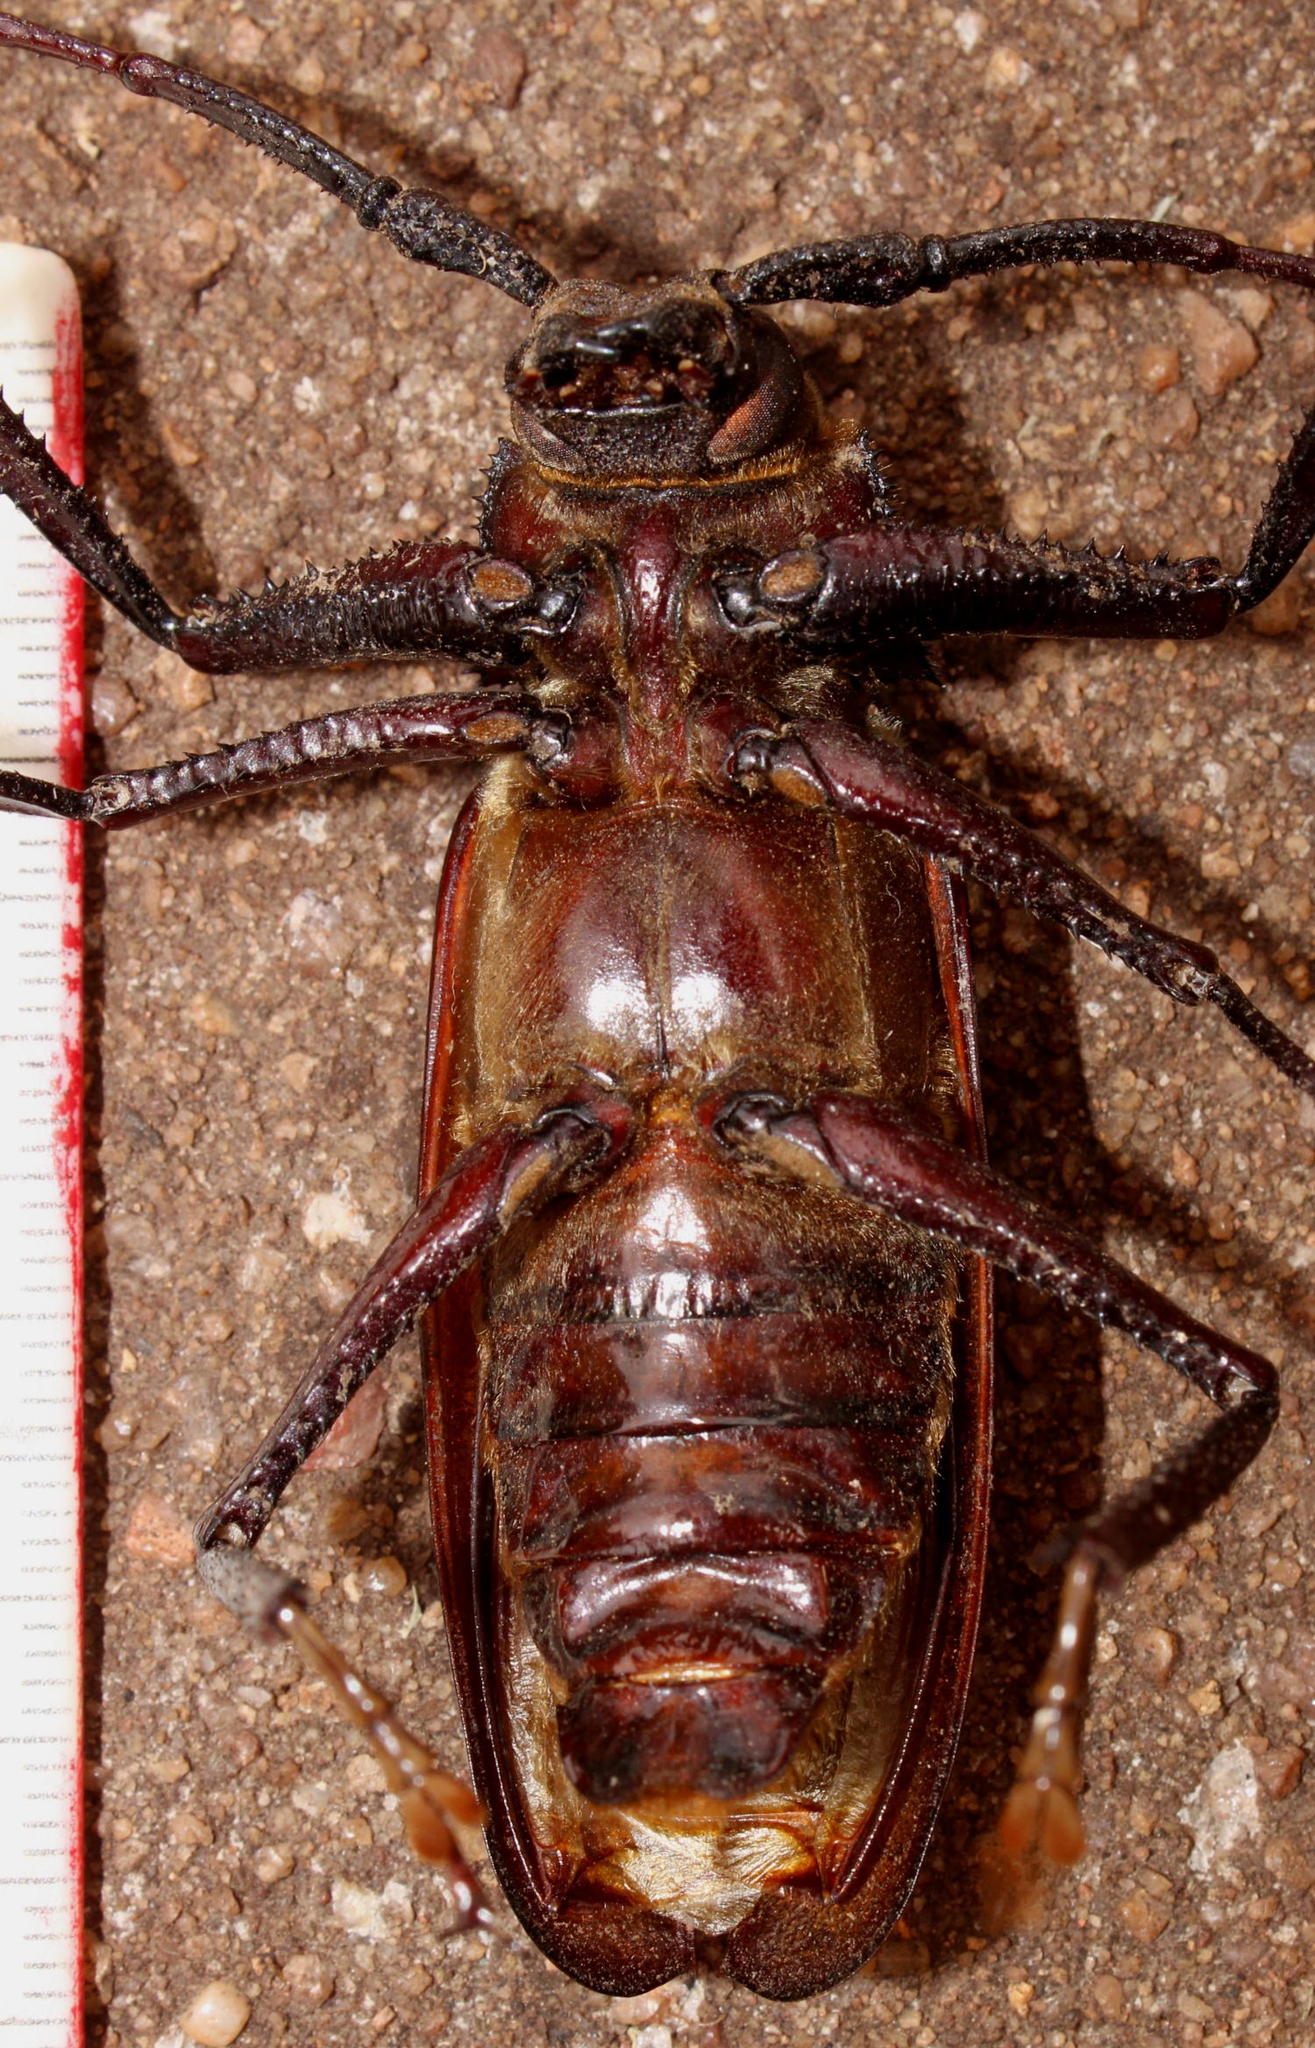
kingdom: Animalia
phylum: Arthropoda
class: Insecta
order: Coleoptera
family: Cerambycidae
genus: Macrotoma
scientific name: Macrotoma natala
